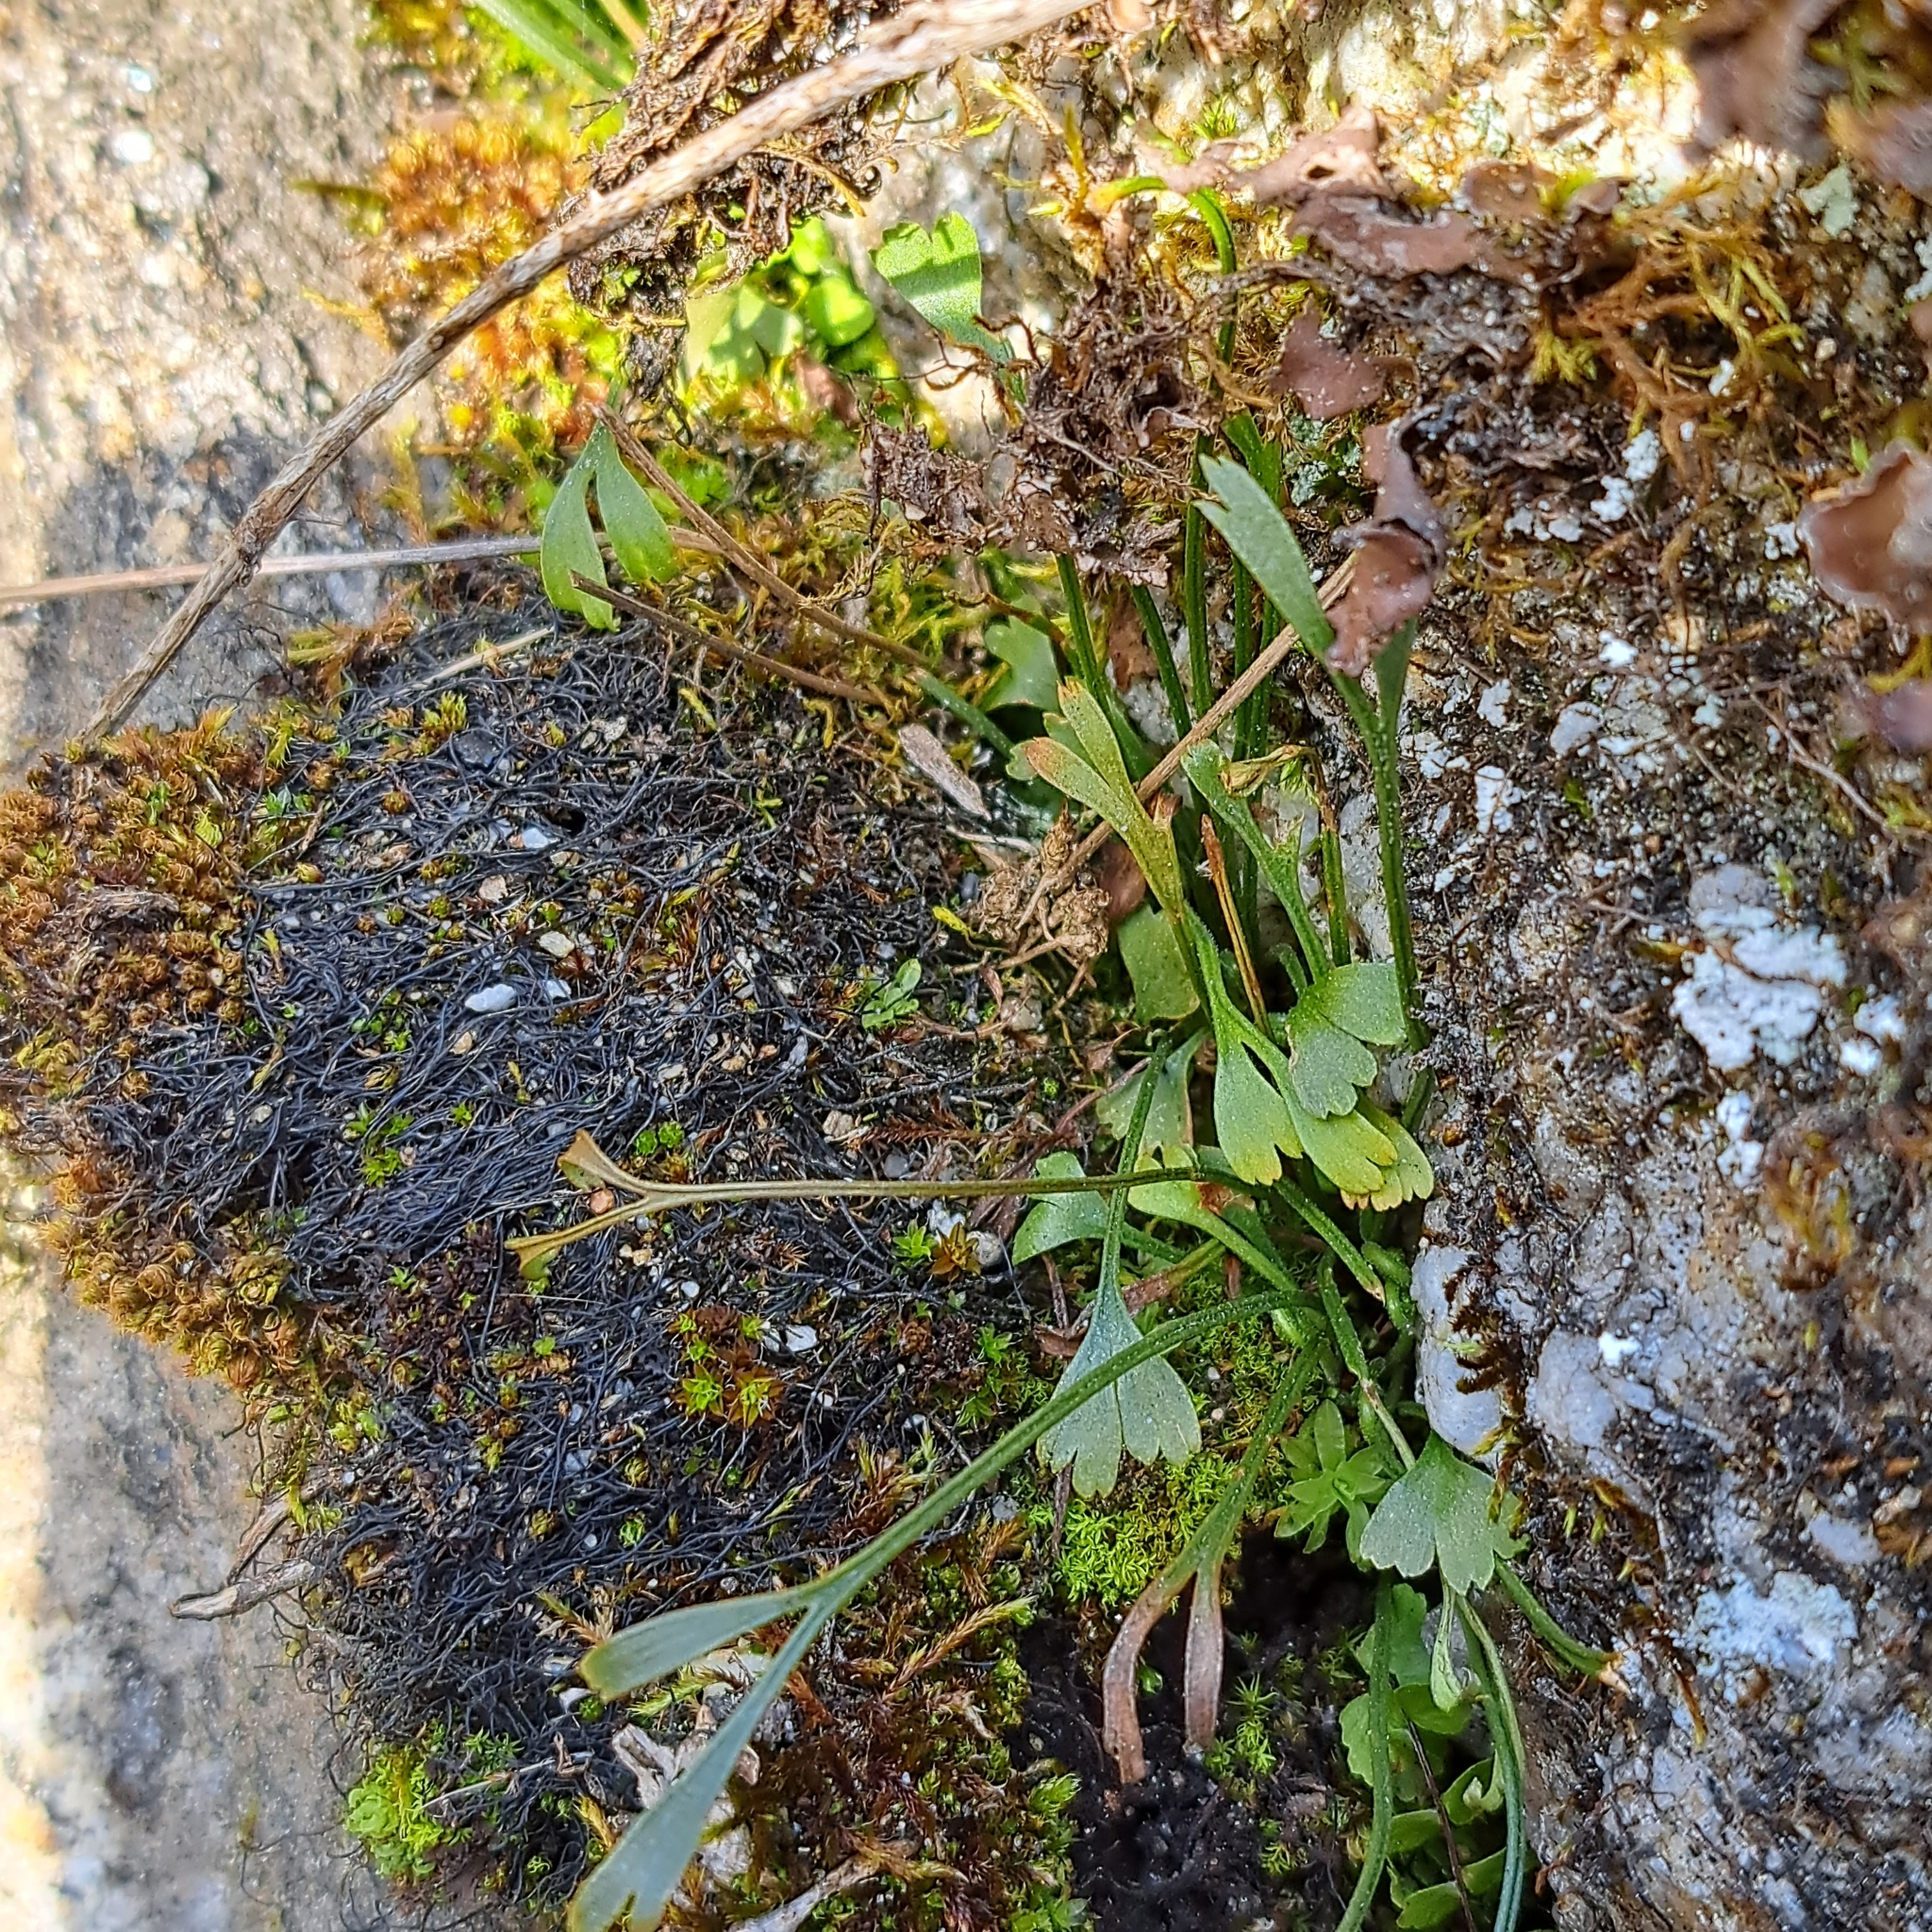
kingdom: Plantae
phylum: Tracheophyta
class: Polypodiopsida
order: Polypodiales
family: Aspleniaceae
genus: Asplenium
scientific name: Asplenium septentrionale
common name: Forked spleenwort
